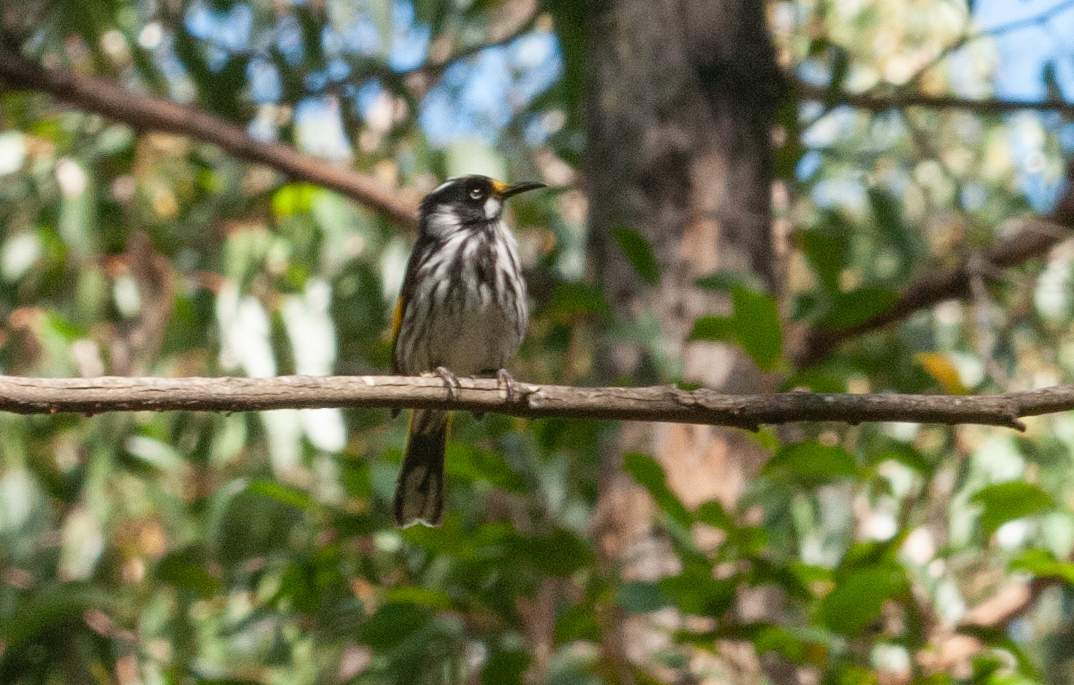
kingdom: Animalia
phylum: Chordata
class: Aves
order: Passeriformes
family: Meliphagidae
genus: Phylidonyris
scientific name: Phylidonyris novaehollandiae
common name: New holland honeyeater
